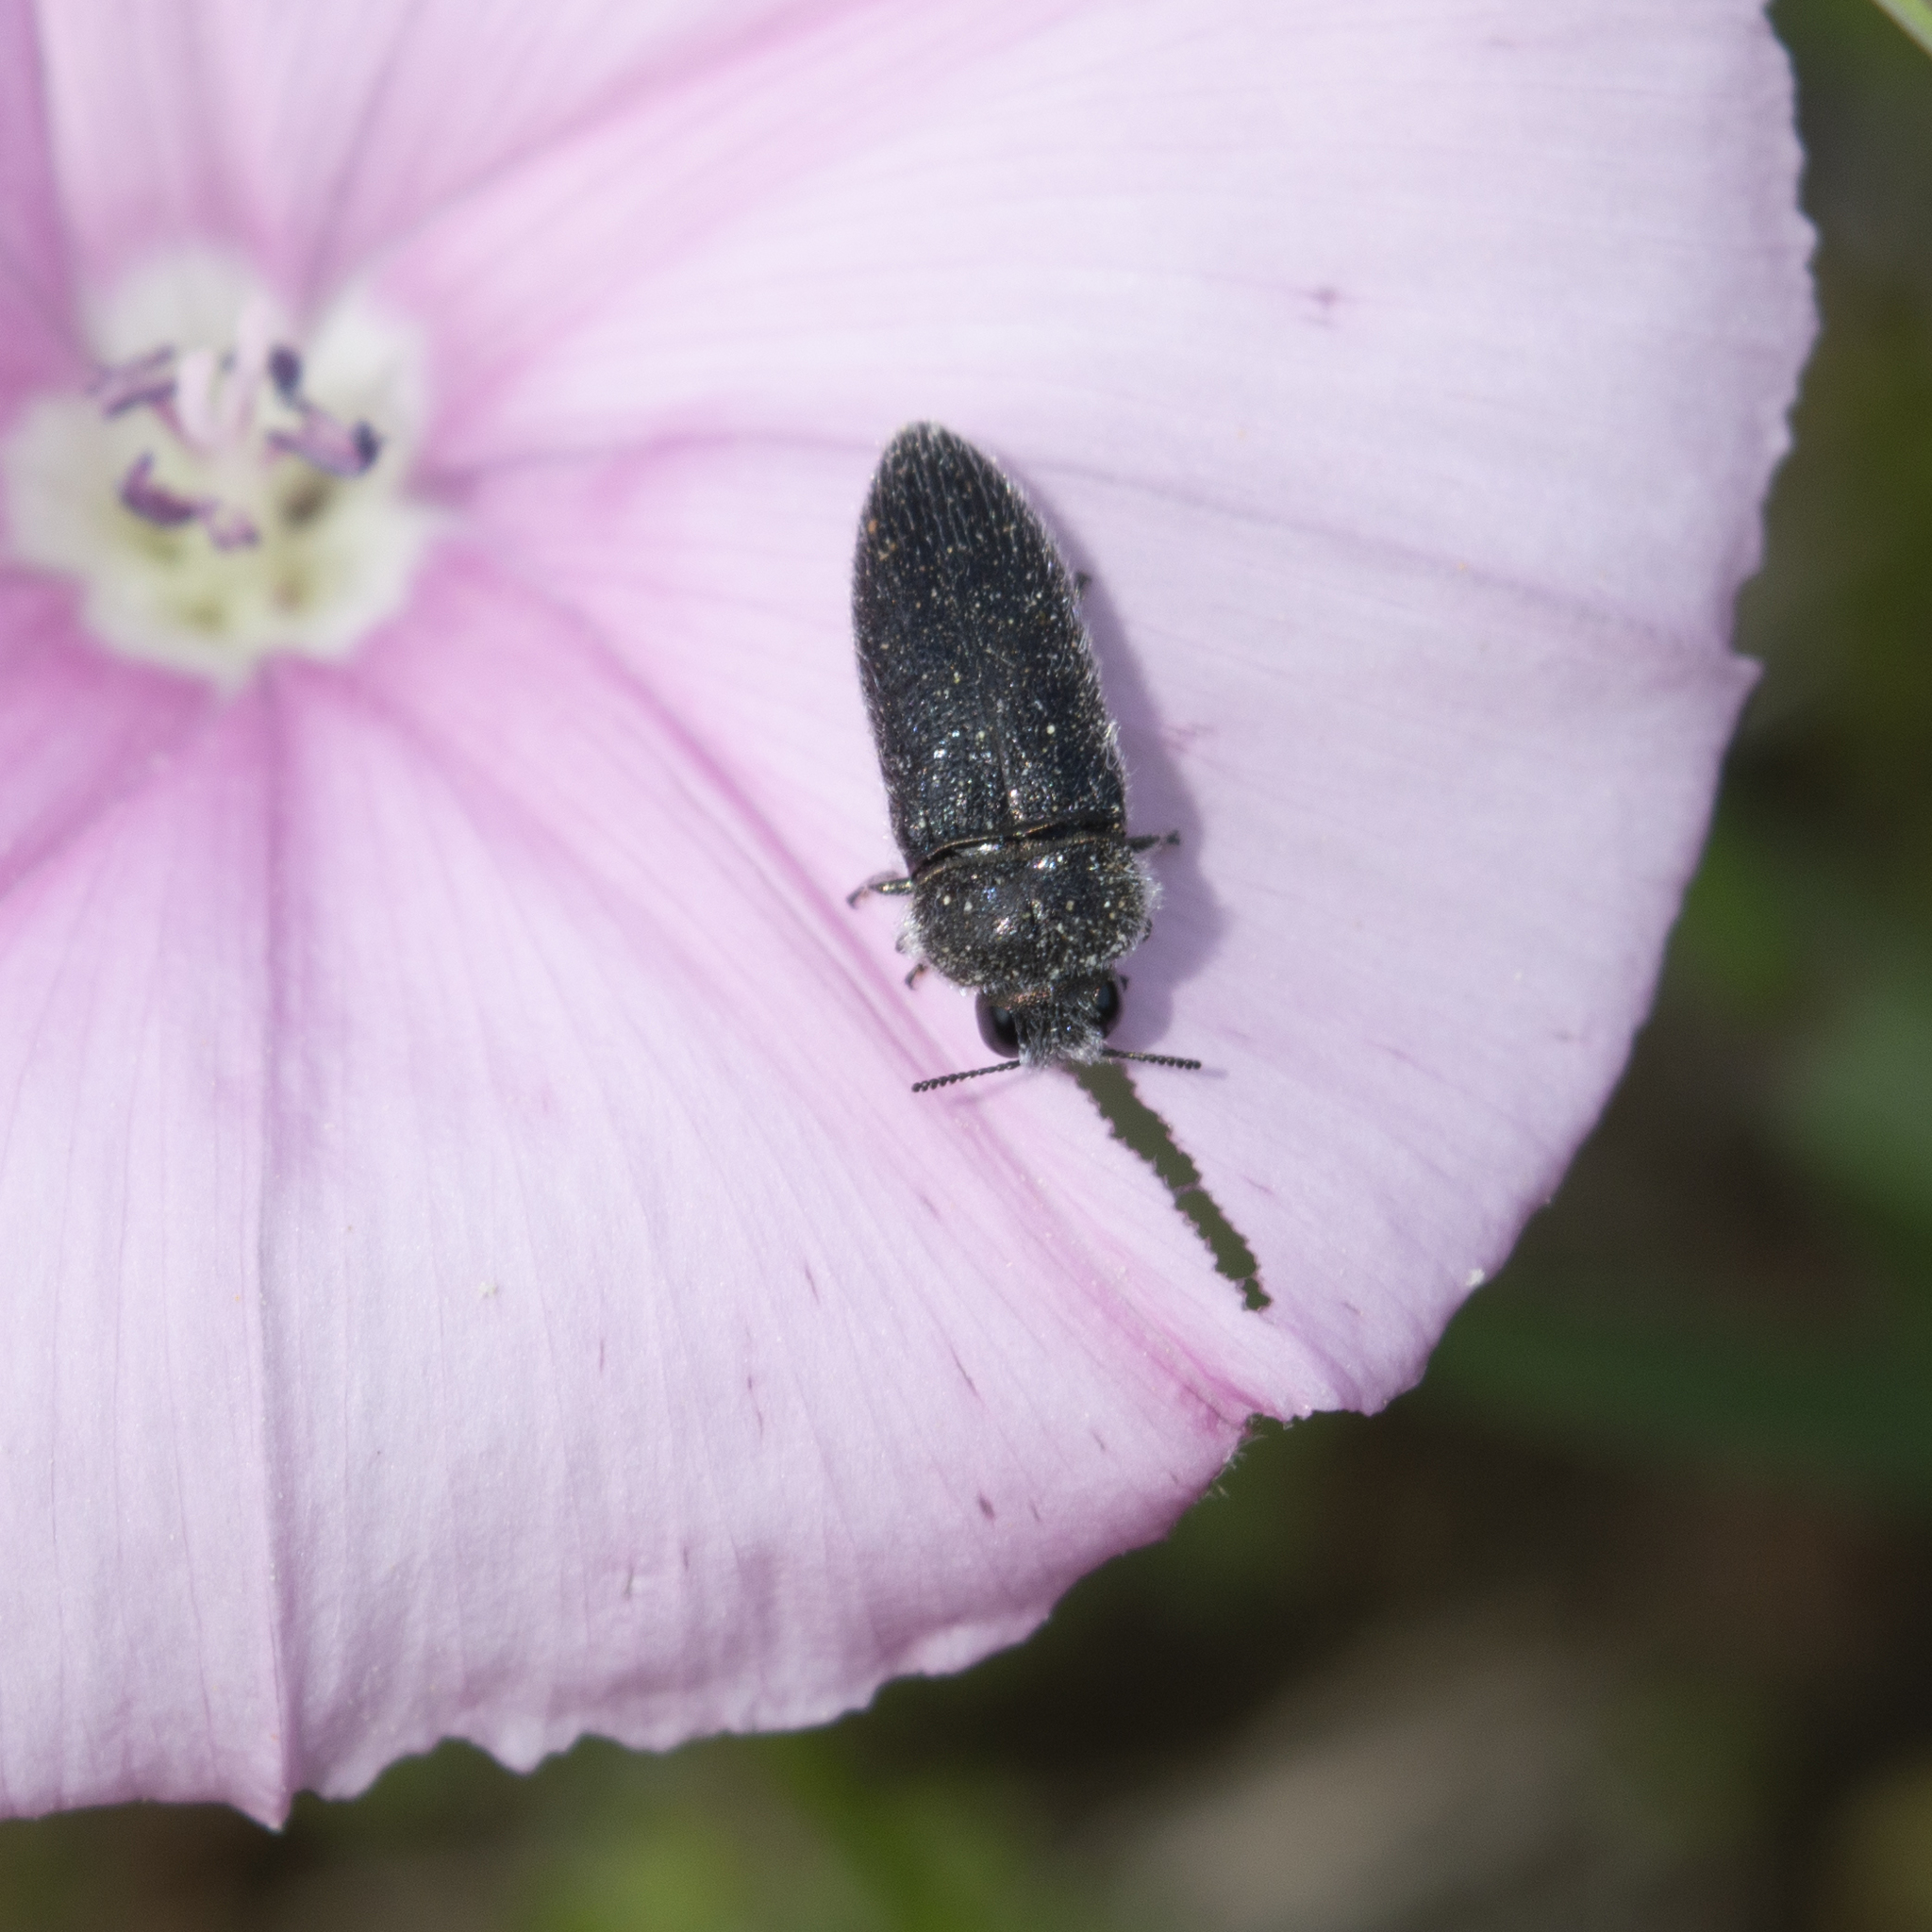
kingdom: Animalia
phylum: Arthropoda
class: Insecta
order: Coleoptera
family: Buprestidae
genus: Acmaeodera
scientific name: Acmaeodera brevipes
